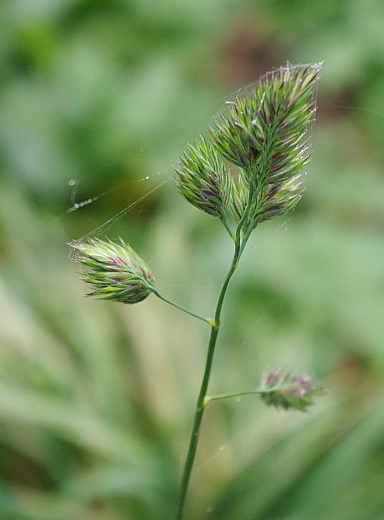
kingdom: Plantae
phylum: Tracheophyta
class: Liliopsida
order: Poales
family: Poaceae
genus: Dactylis
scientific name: Dactylis glomerata
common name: Orchardgrass
